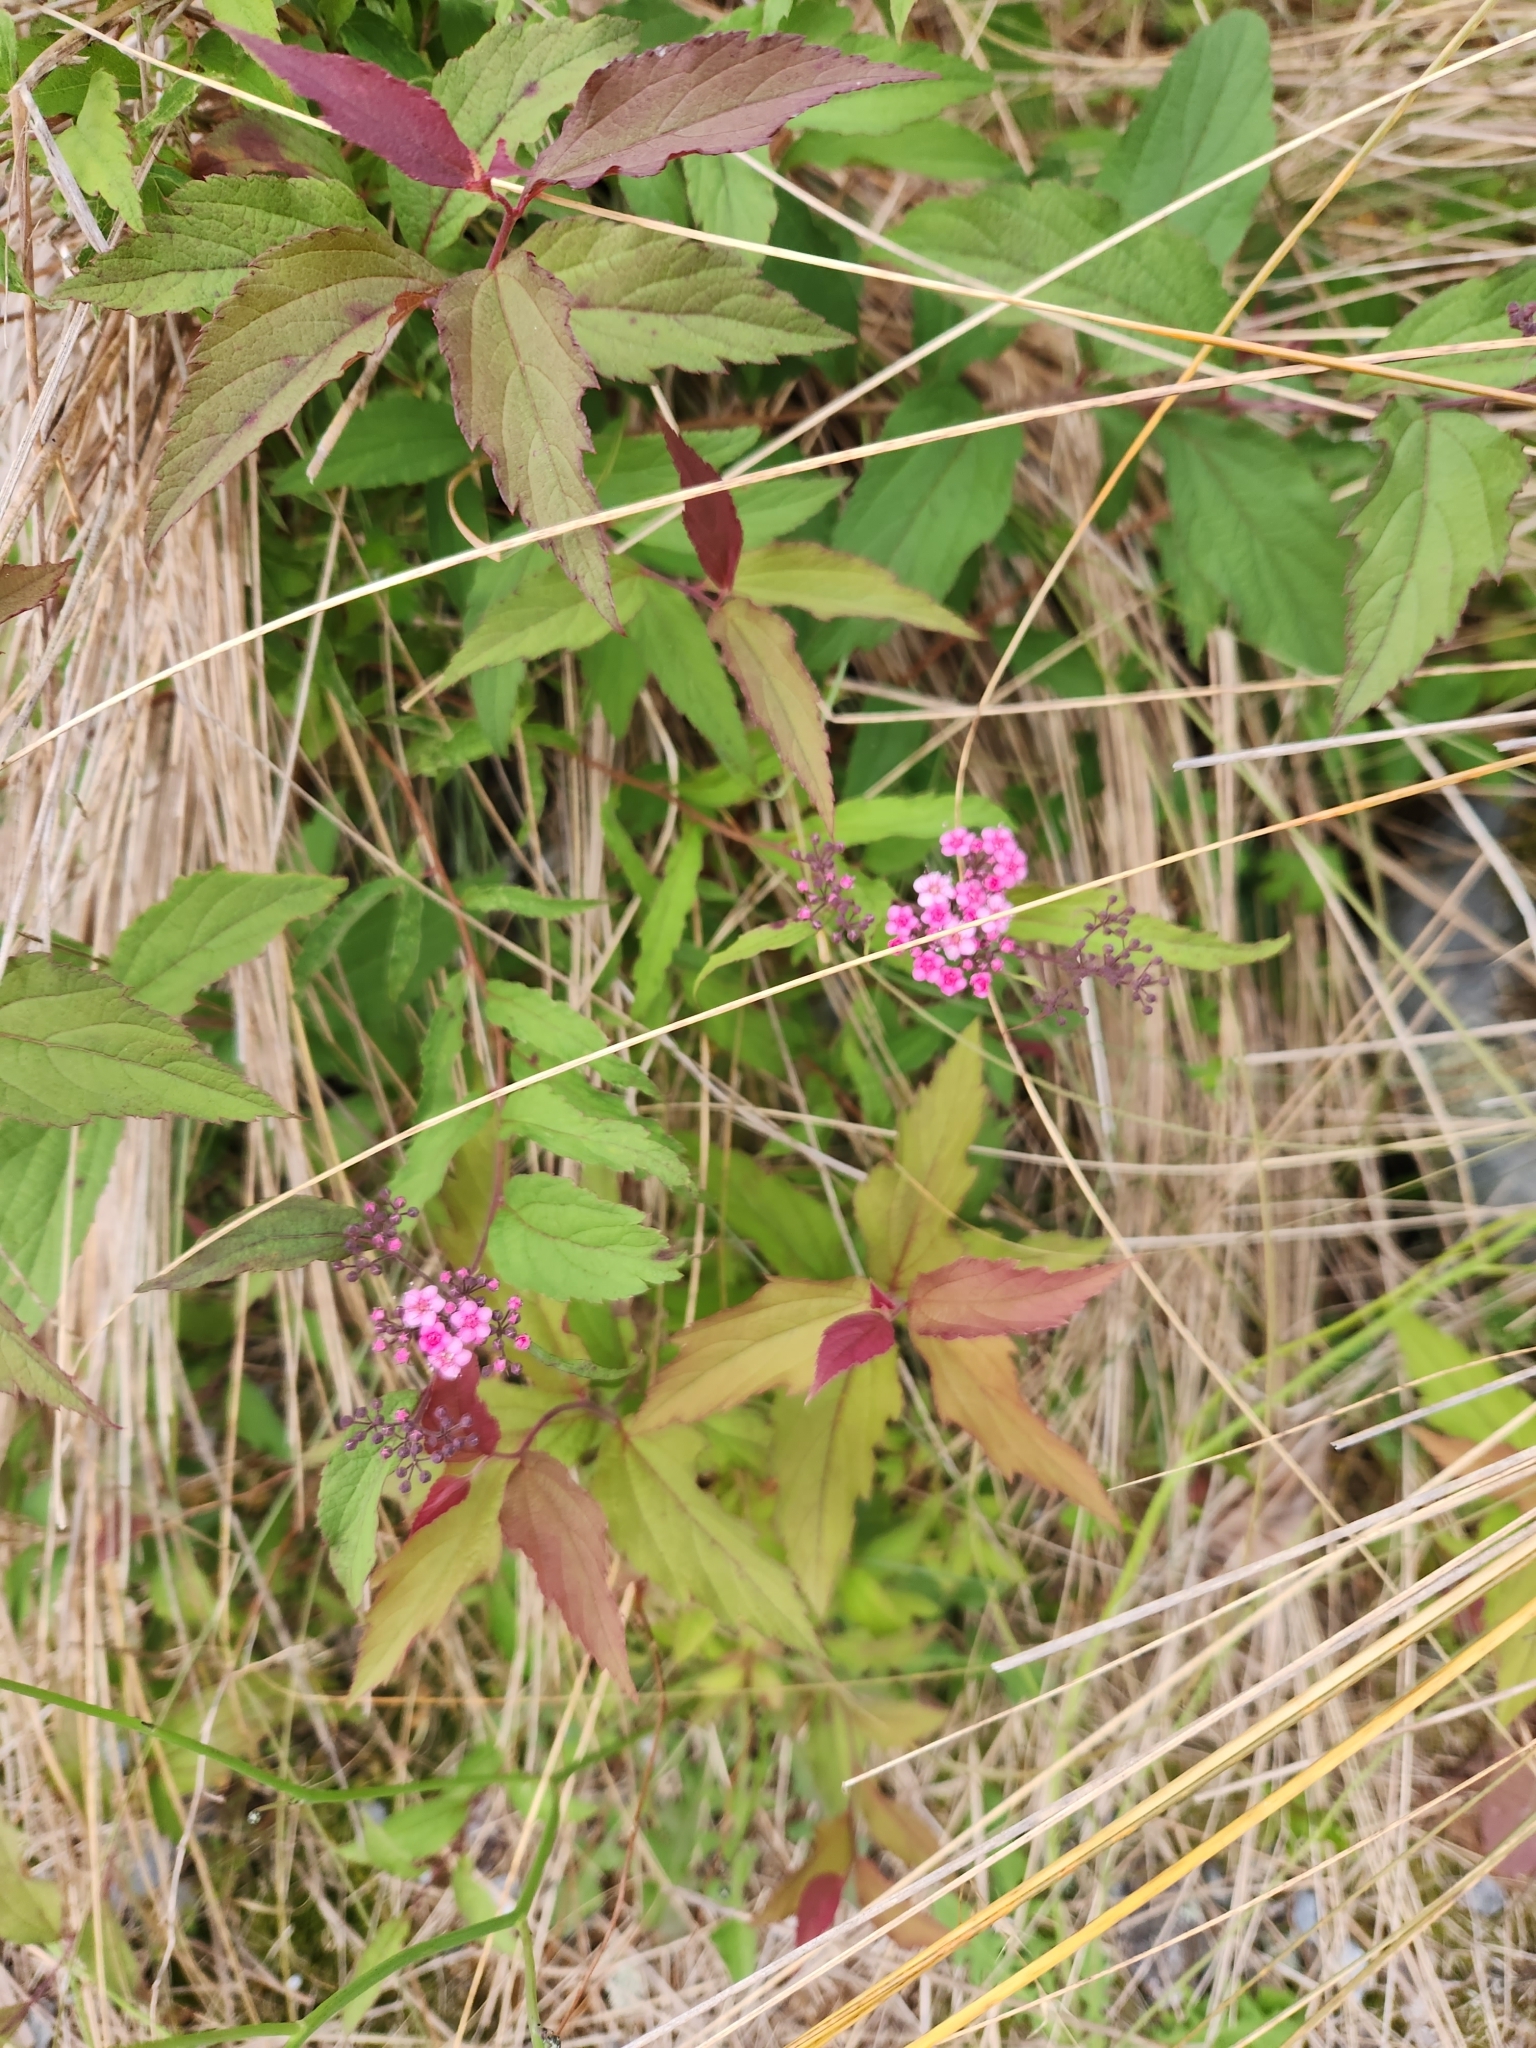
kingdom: Plantae
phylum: Tracheophyta
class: Magnoliopsida
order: Rosales
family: Rosaceae
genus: Spiraea
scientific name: Spiraea japonica
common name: Japanese spiraea
